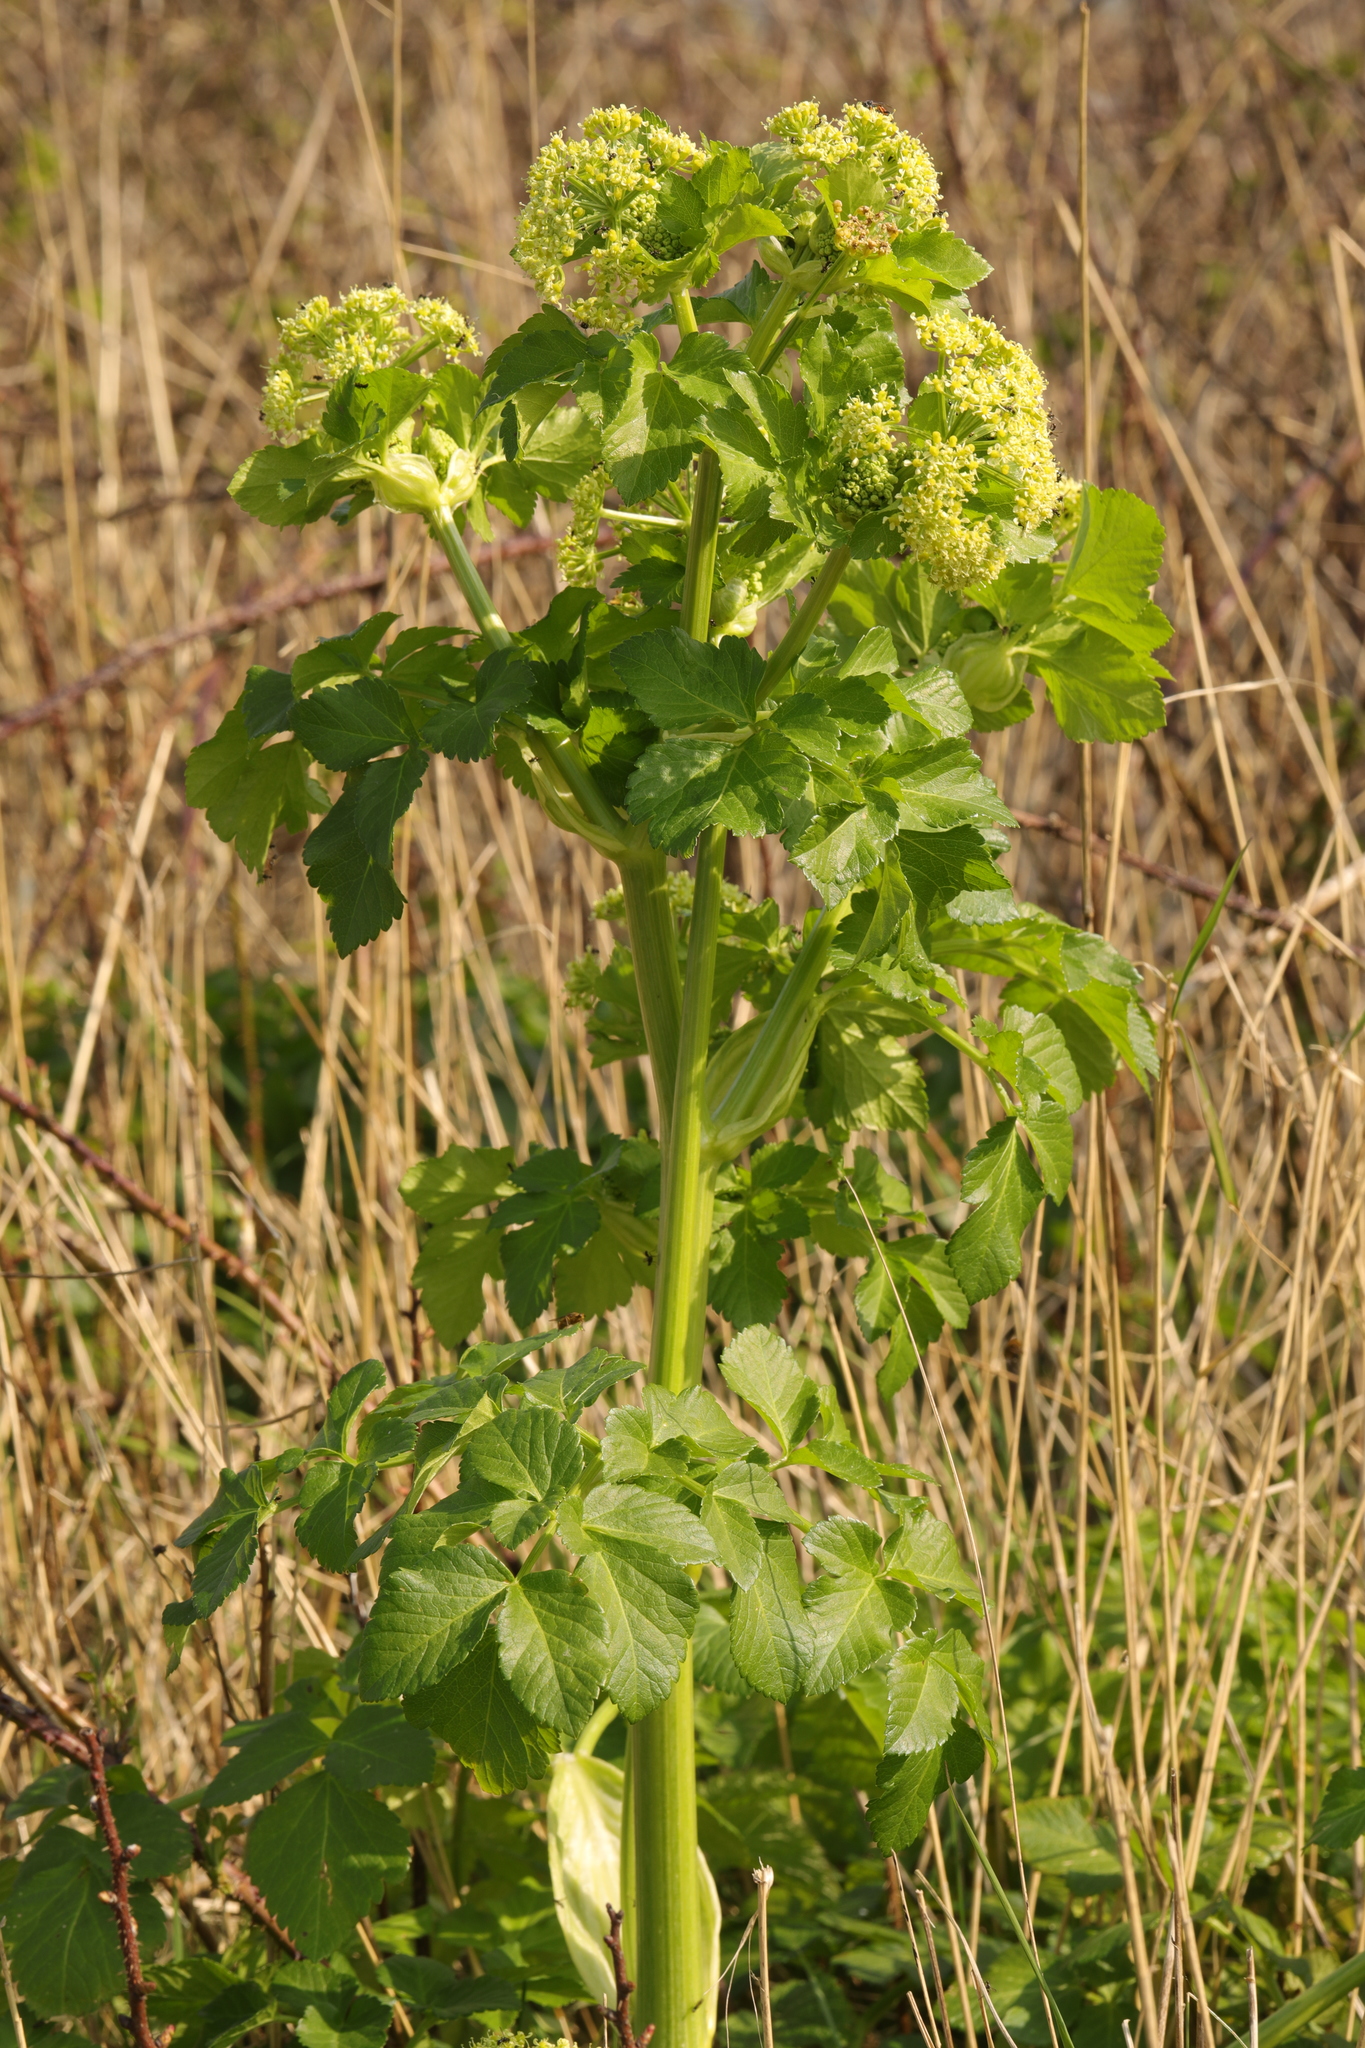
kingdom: Plantae
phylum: Tracheophyta
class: Magnoliopsida
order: Apiales
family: Apiaceae
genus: Smyrnium
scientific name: Smyrnium olusatrum
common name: Alexanders
